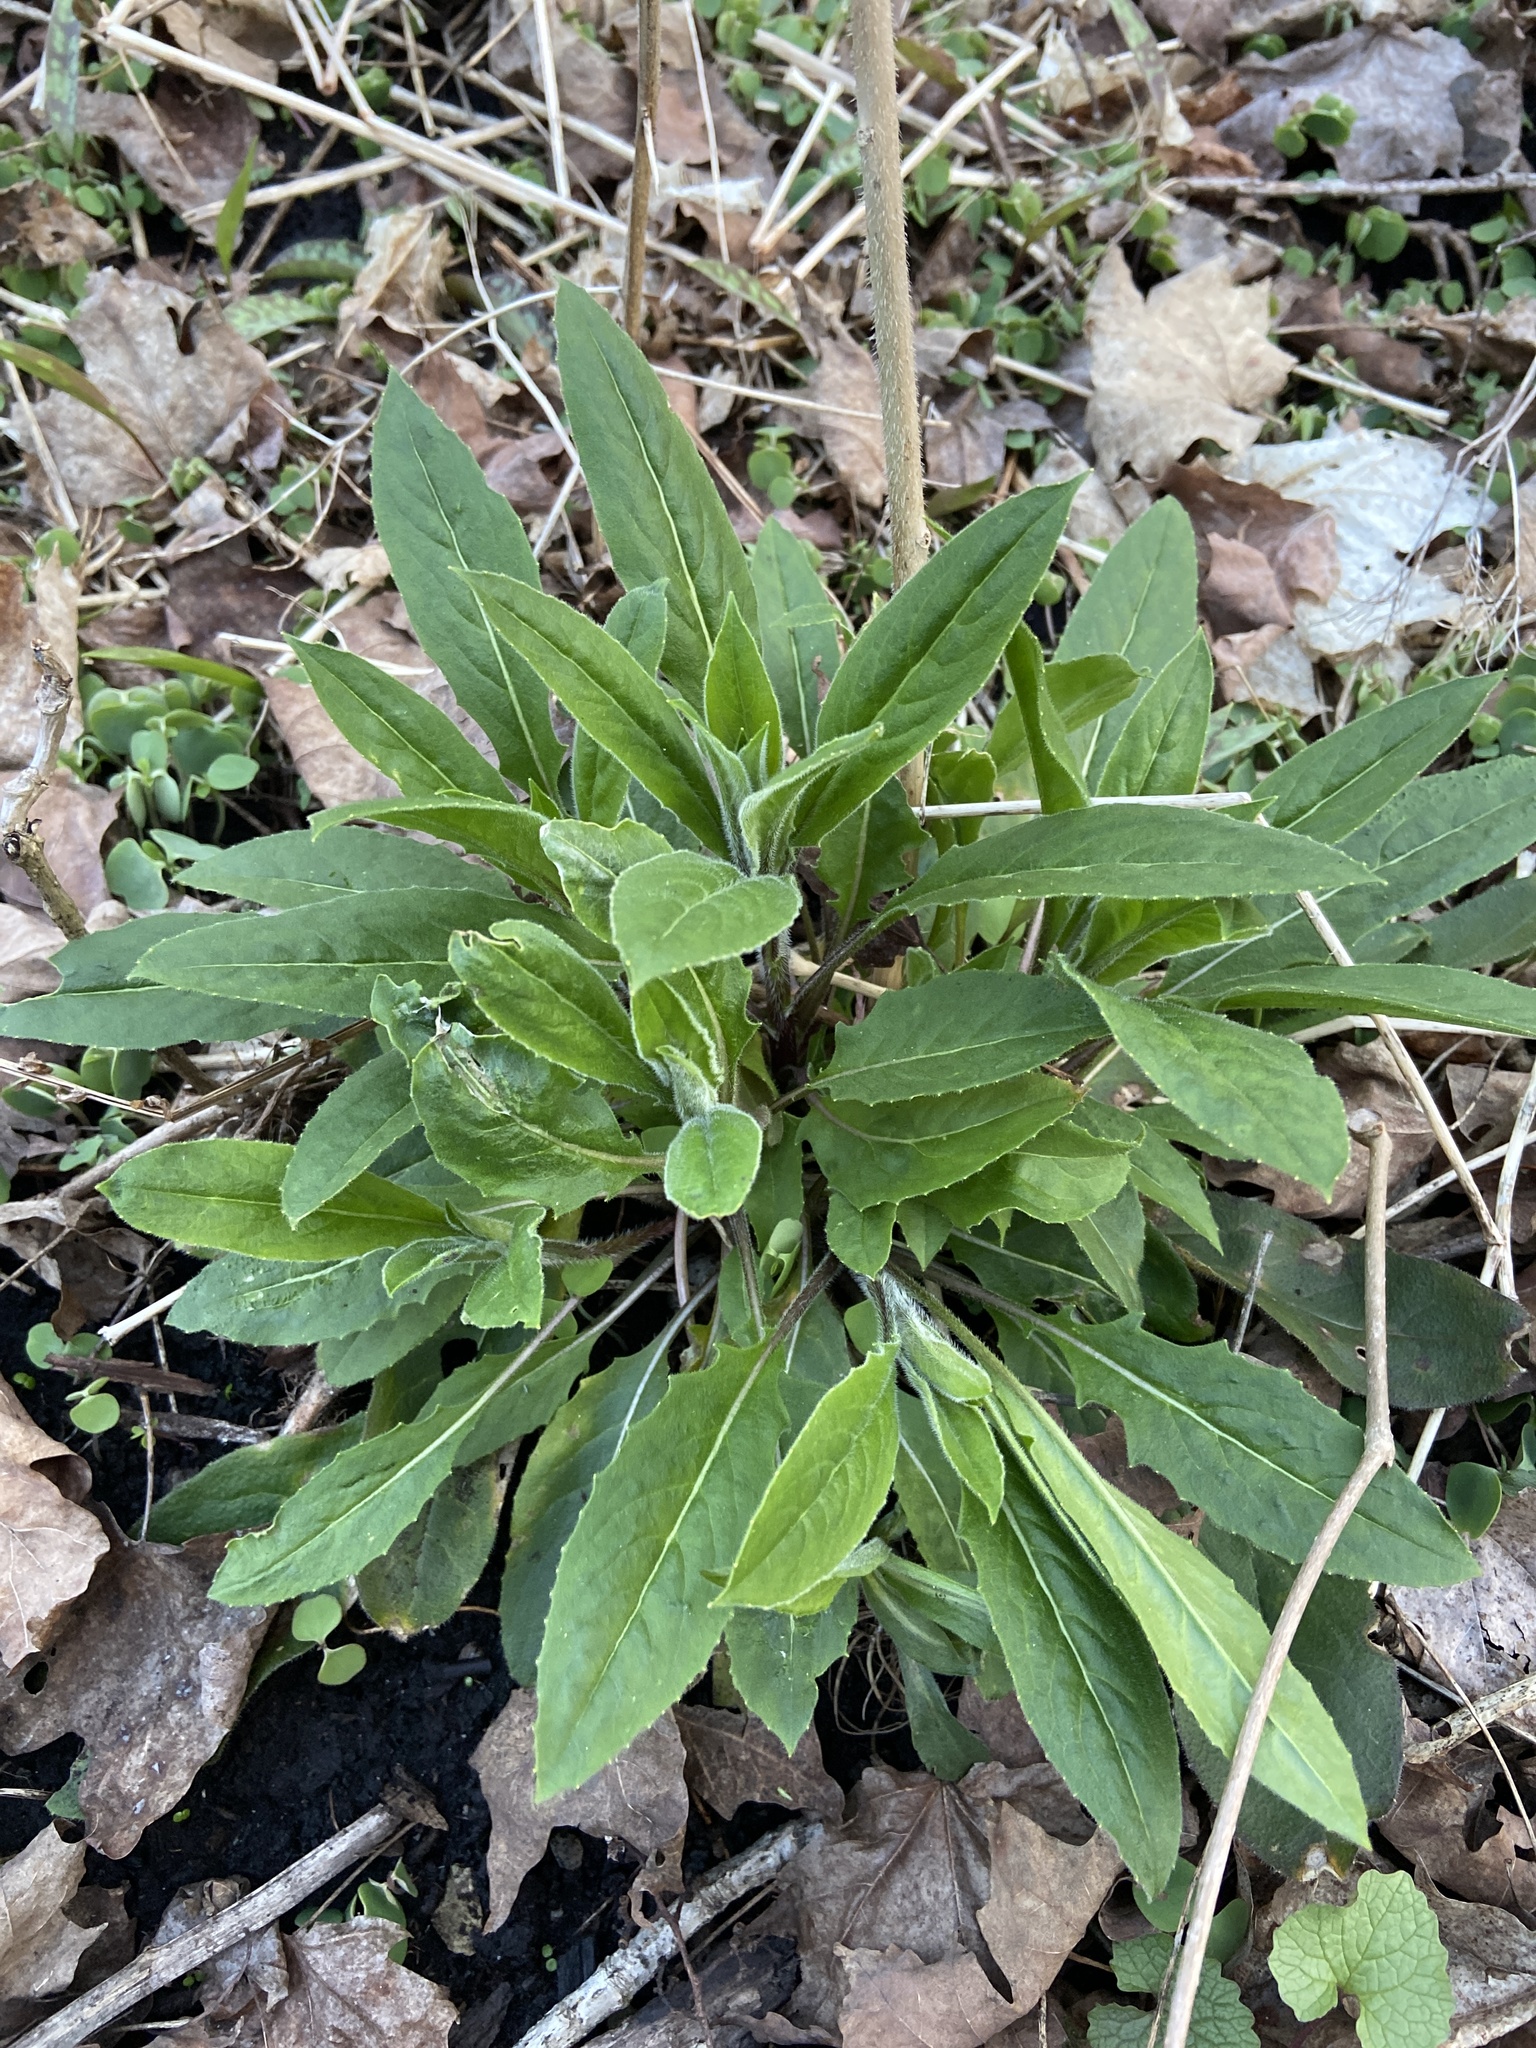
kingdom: Plantae
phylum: Tracheophyta
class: Magnoliopsida
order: Brassicales
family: Brassicaceae
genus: Hesperis
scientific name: Hesperis matronalis
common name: Dame's-violet
